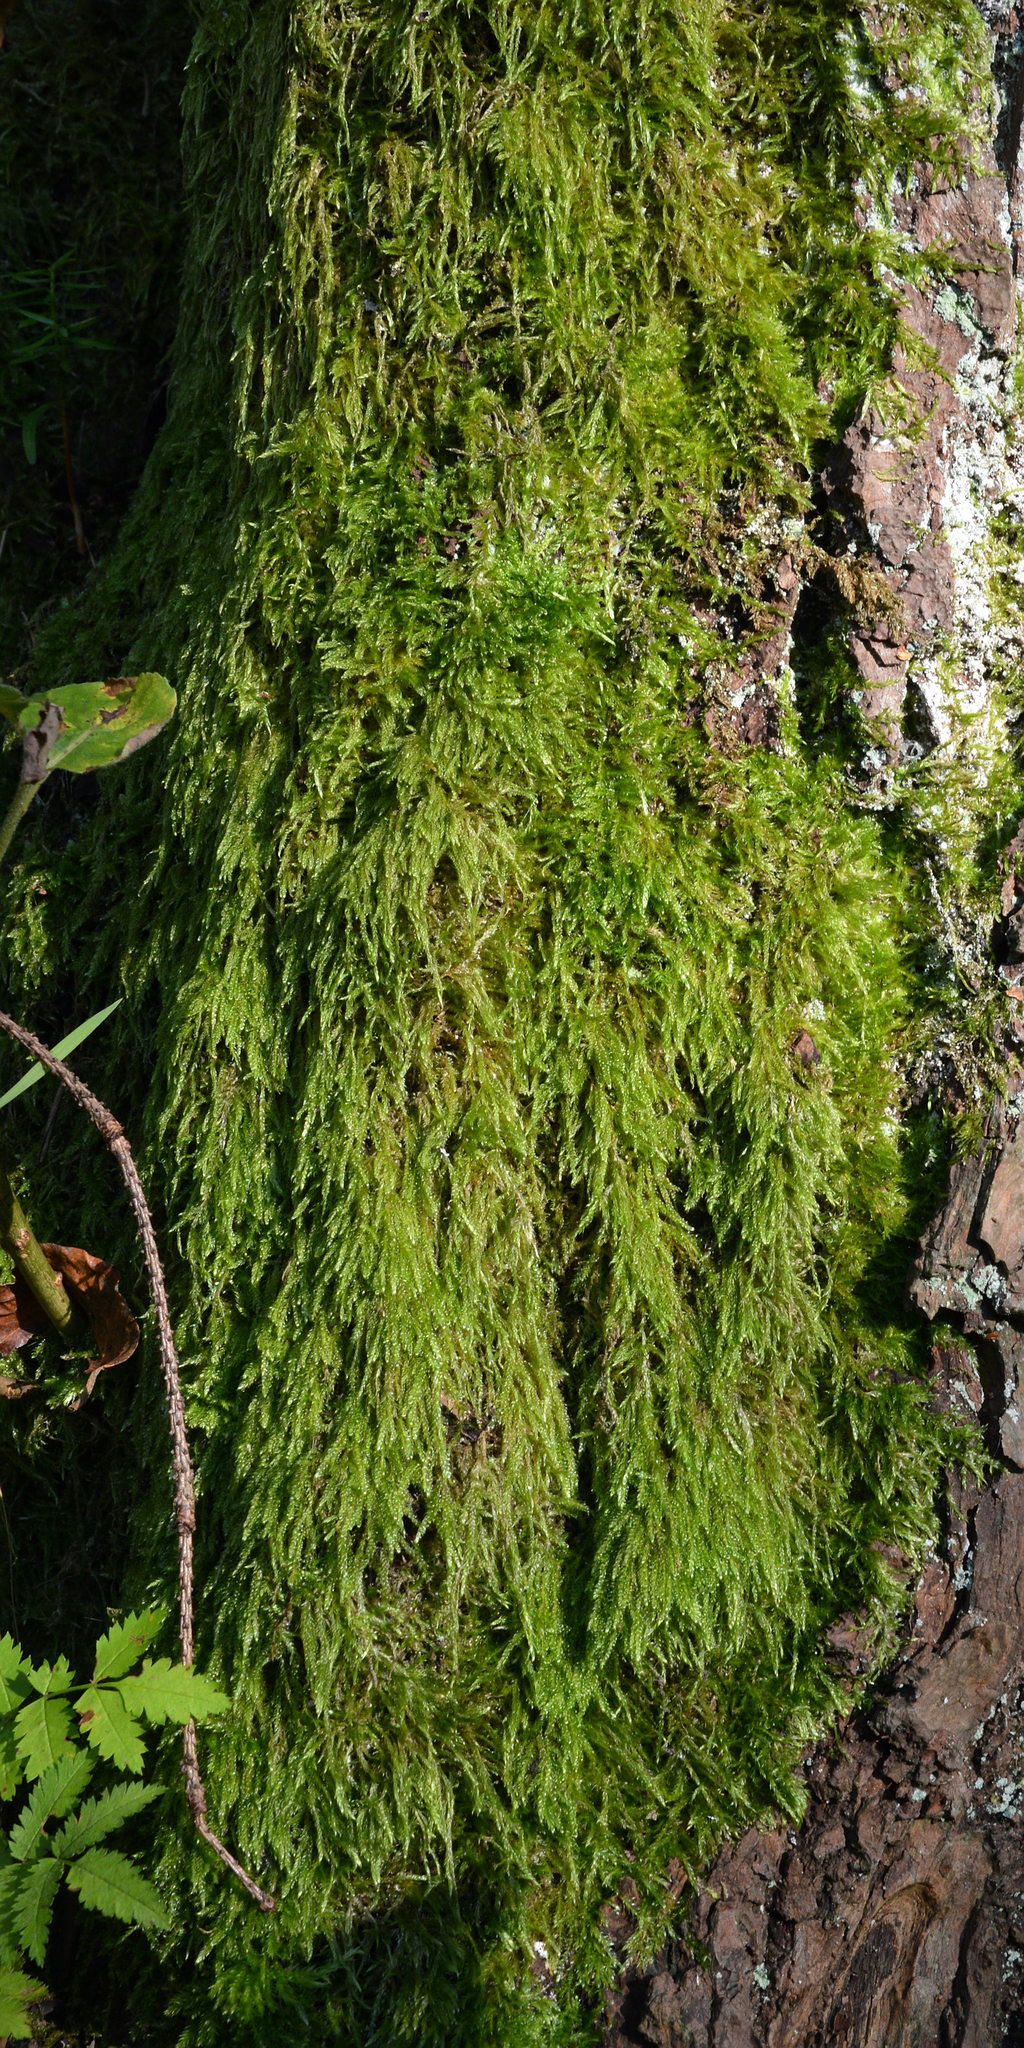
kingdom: Plantae
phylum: Bryophyta
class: Bryopsida
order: Hypnales
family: Hypnaceae
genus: Hypnum
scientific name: Hypnum cupressiforme
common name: Cypress-leaved plait-moss
